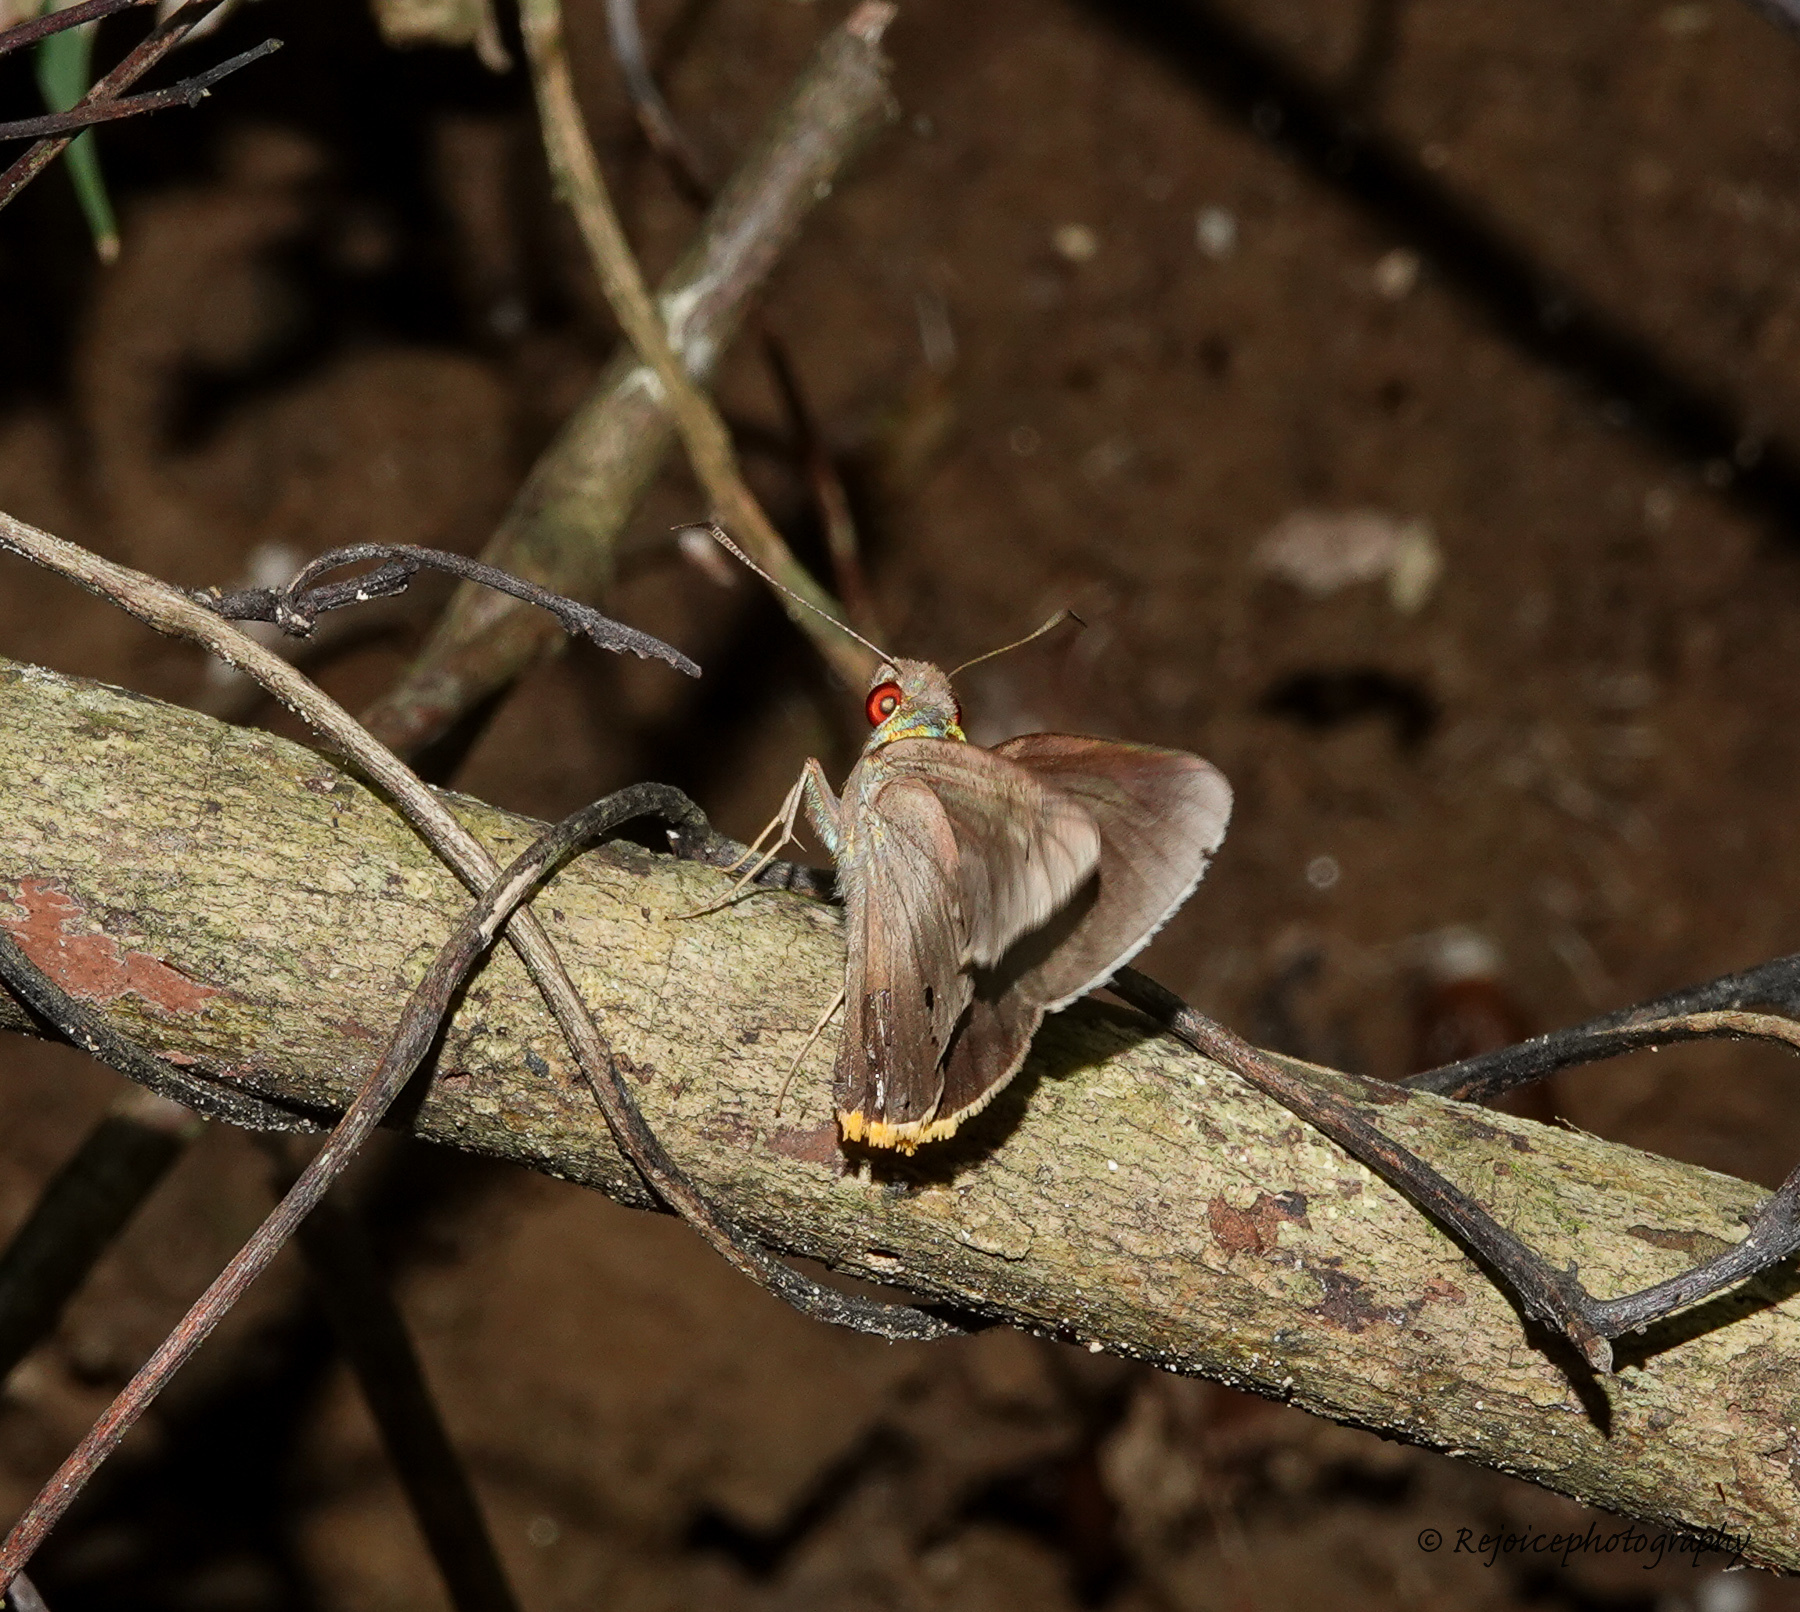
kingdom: Animalia
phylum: Arthropoda
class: Insecta
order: Lepidoptera
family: Hesperiidae
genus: Matapa
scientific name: Matapa sasivarna
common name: Black-veined redeye
